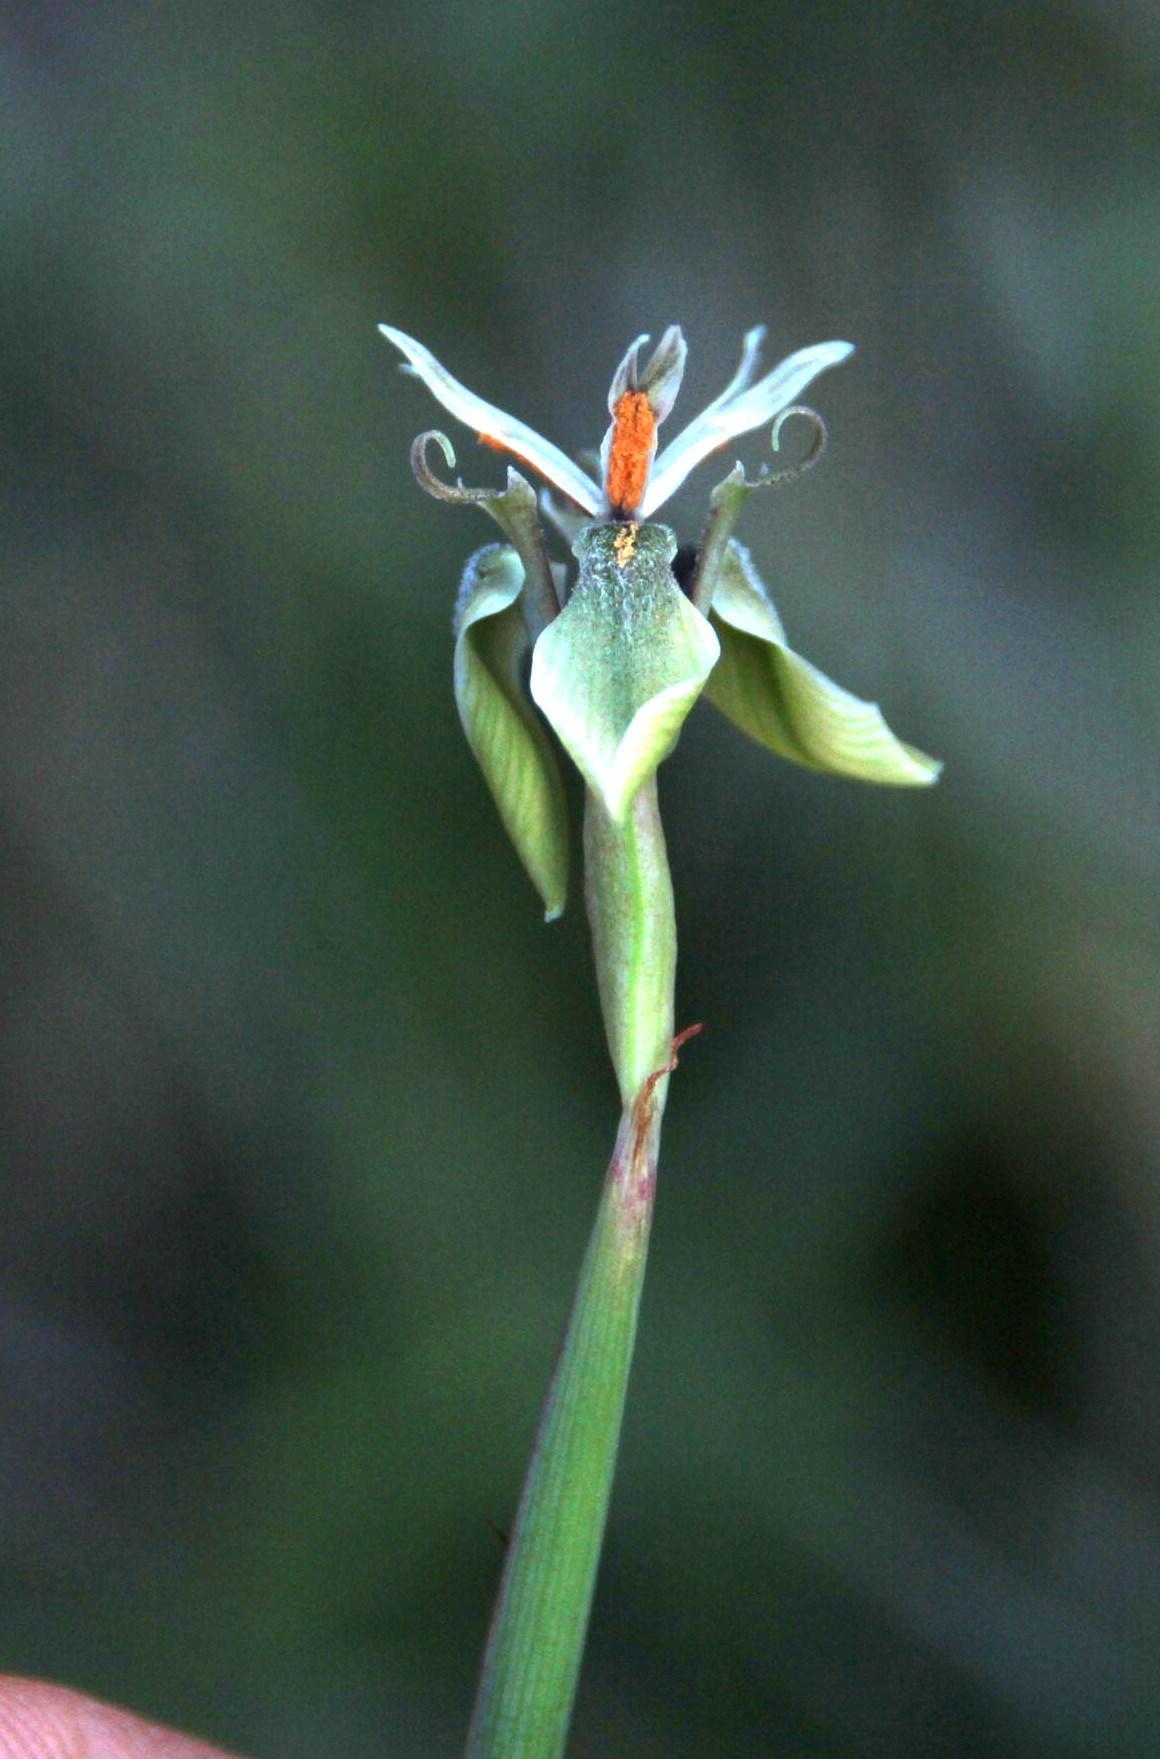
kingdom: Plantae
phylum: Tracheophyta
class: Liliopsida
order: Asparagales
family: Iridaceae
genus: Moraea
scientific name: Moraea unguiculata
